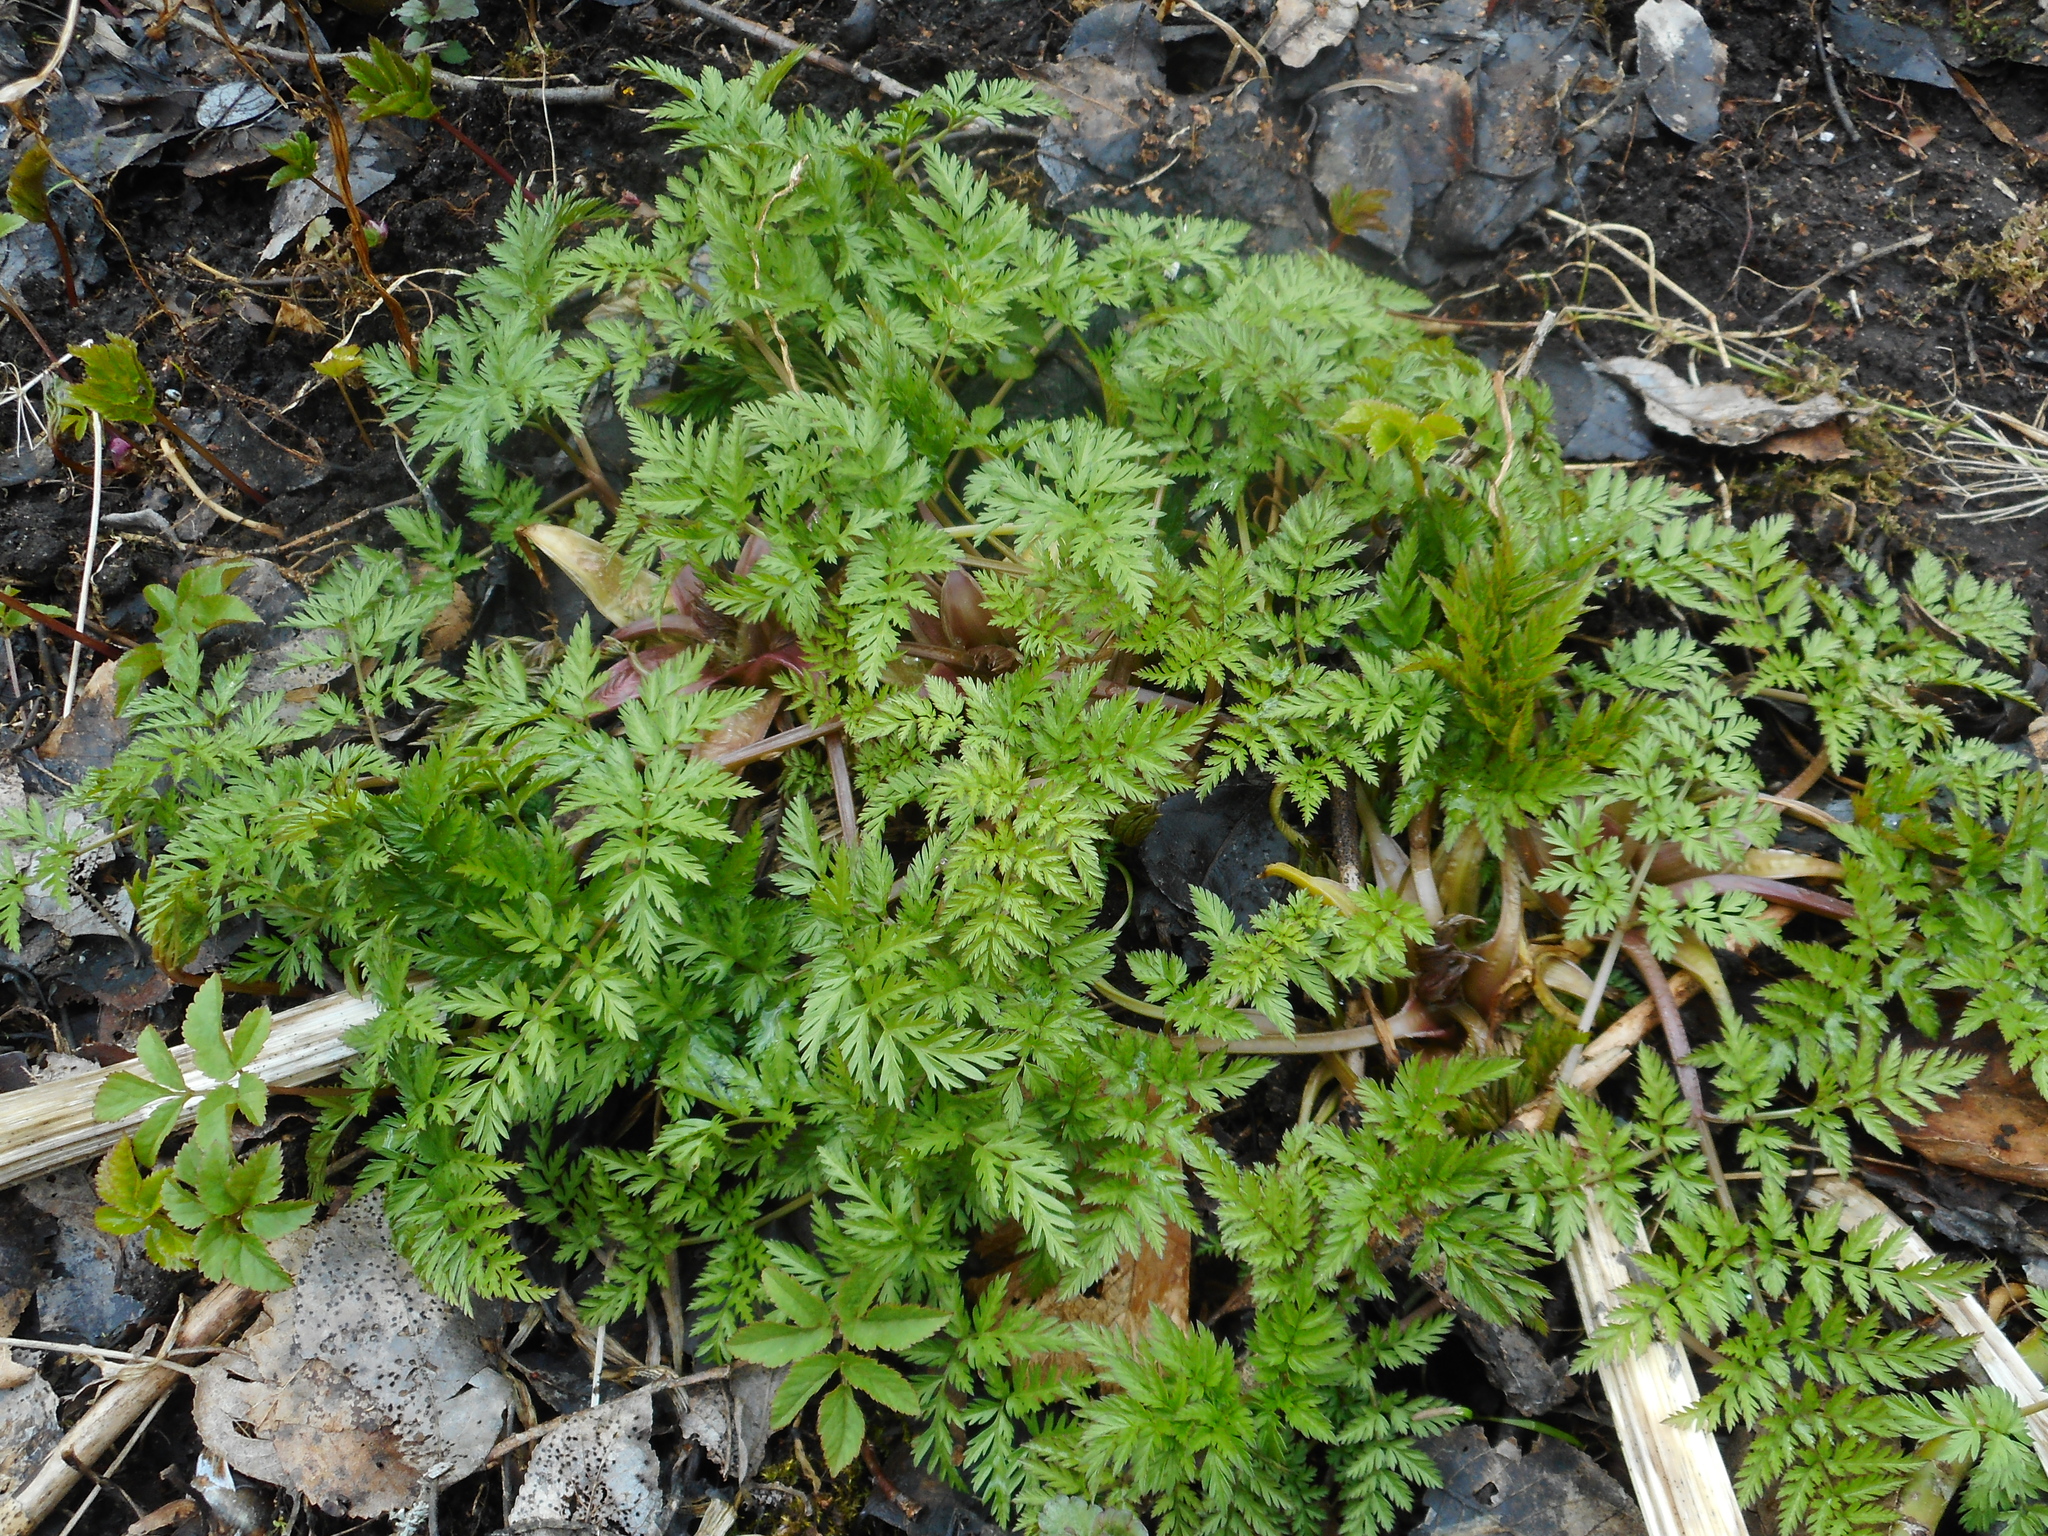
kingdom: Plantae
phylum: Tracheophyta
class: Magnoliopsida
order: Apiales
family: Apiaceae
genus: Anthriscus
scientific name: Anthriscus sylvestris
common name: Cow parsley
